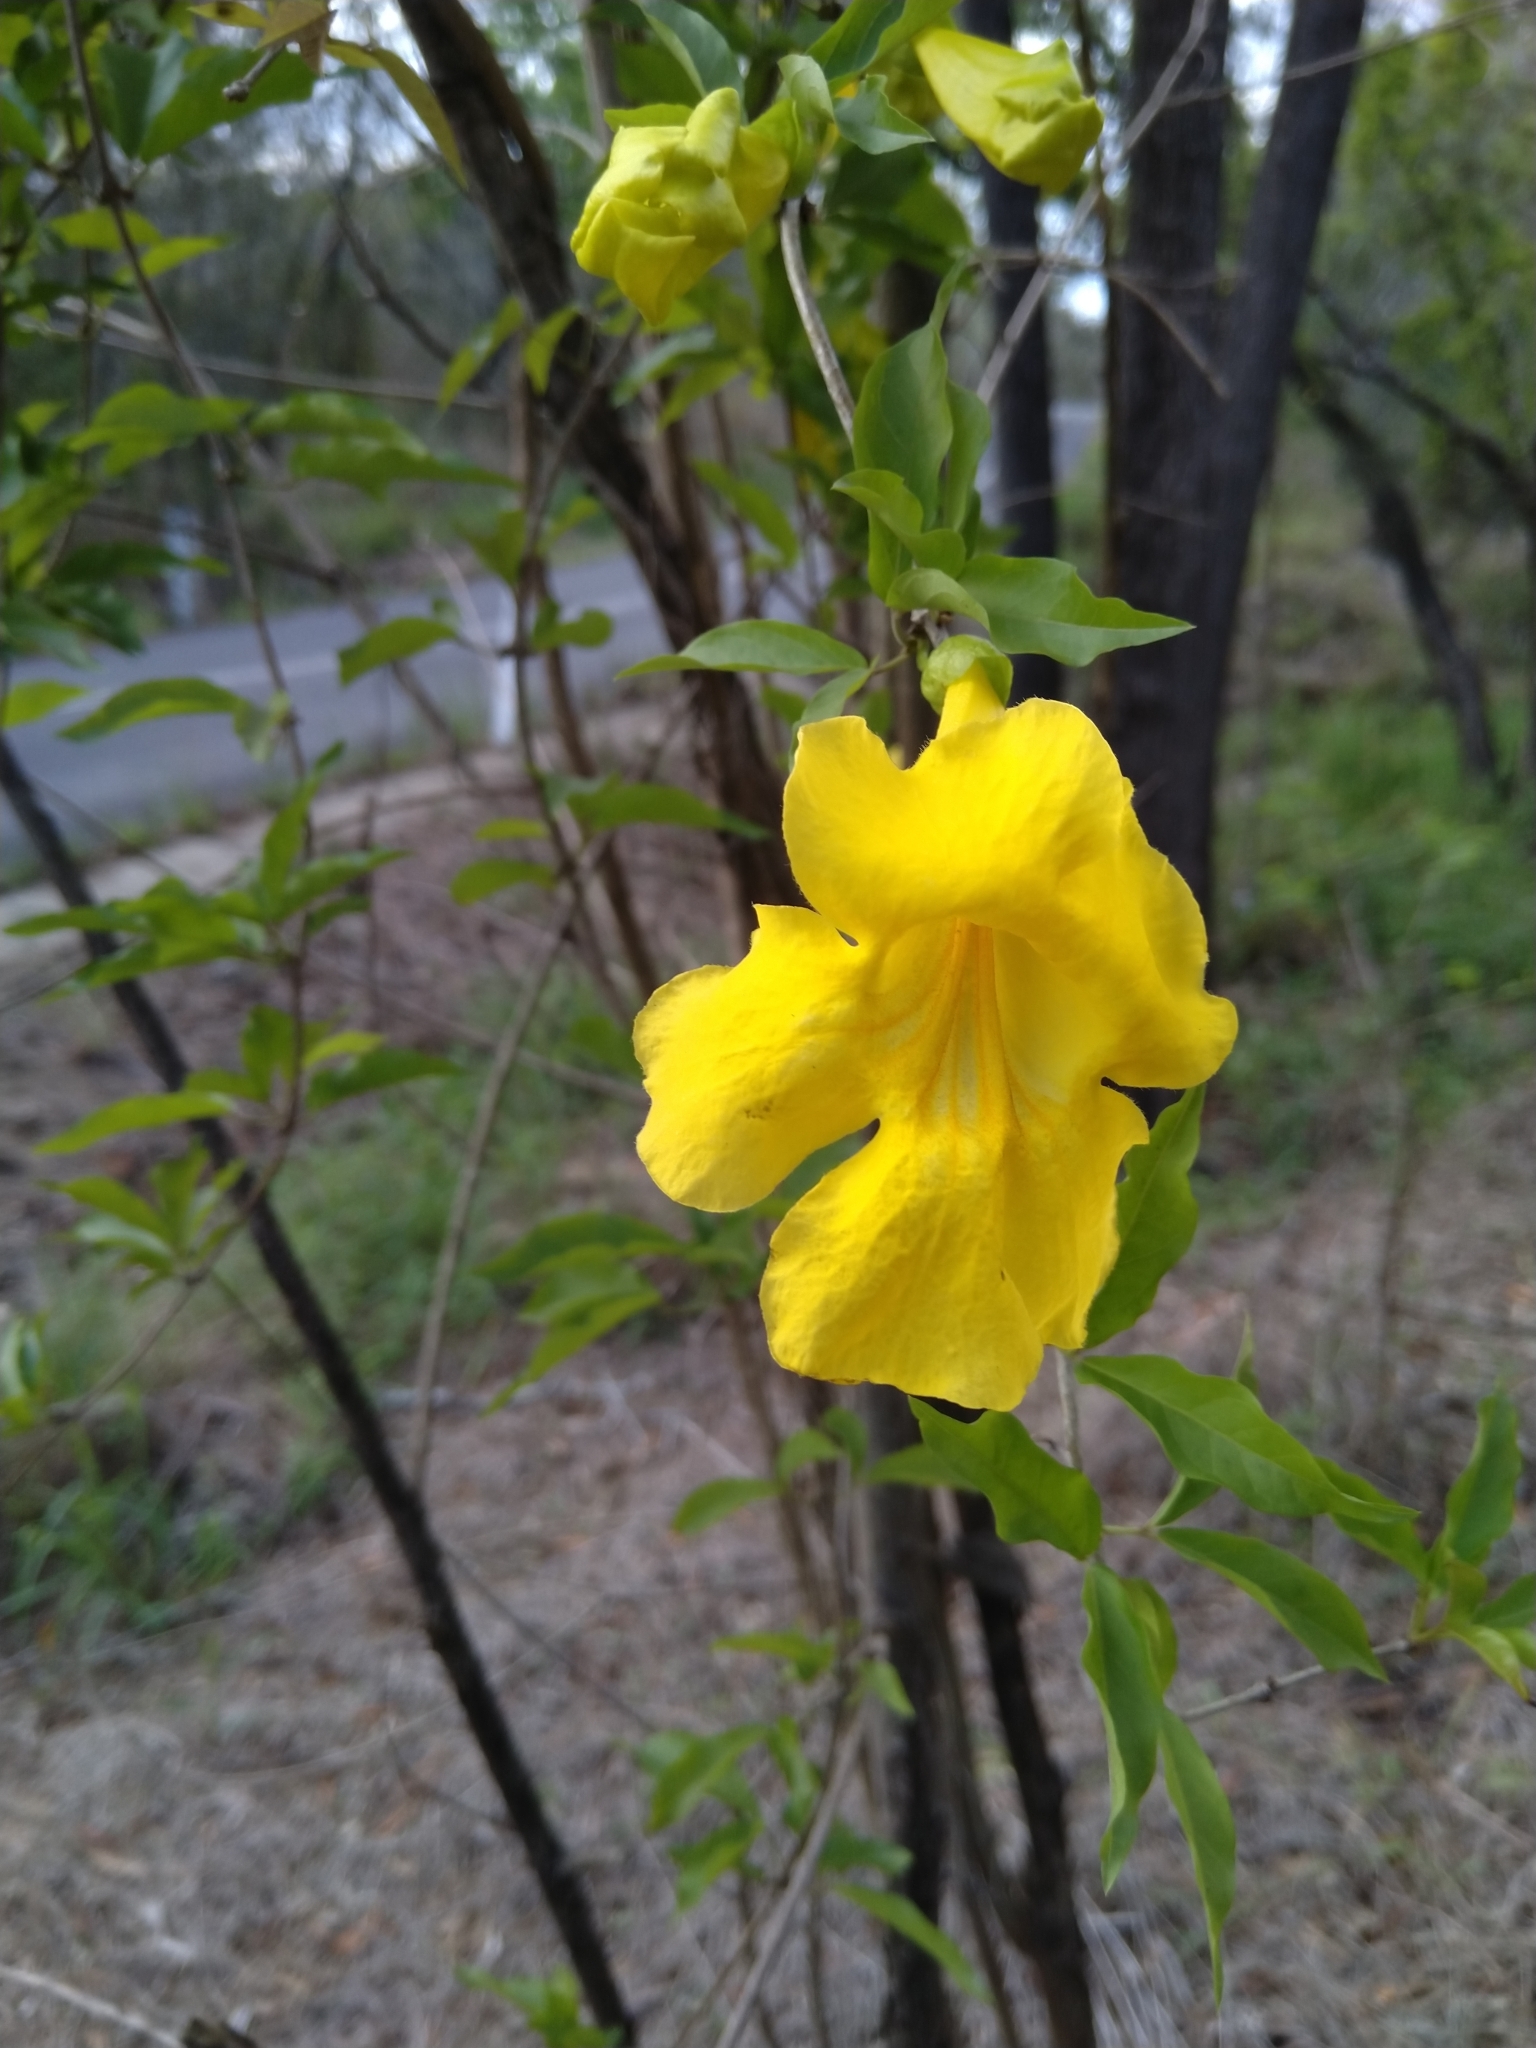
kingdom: Plantae
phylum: Tracheophyta
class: Magnoliopsida
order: Lamiales
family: Bignoniaceae
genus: Dolichandra
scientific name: Dolichandra unguis-cati
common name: Catclaw vine
